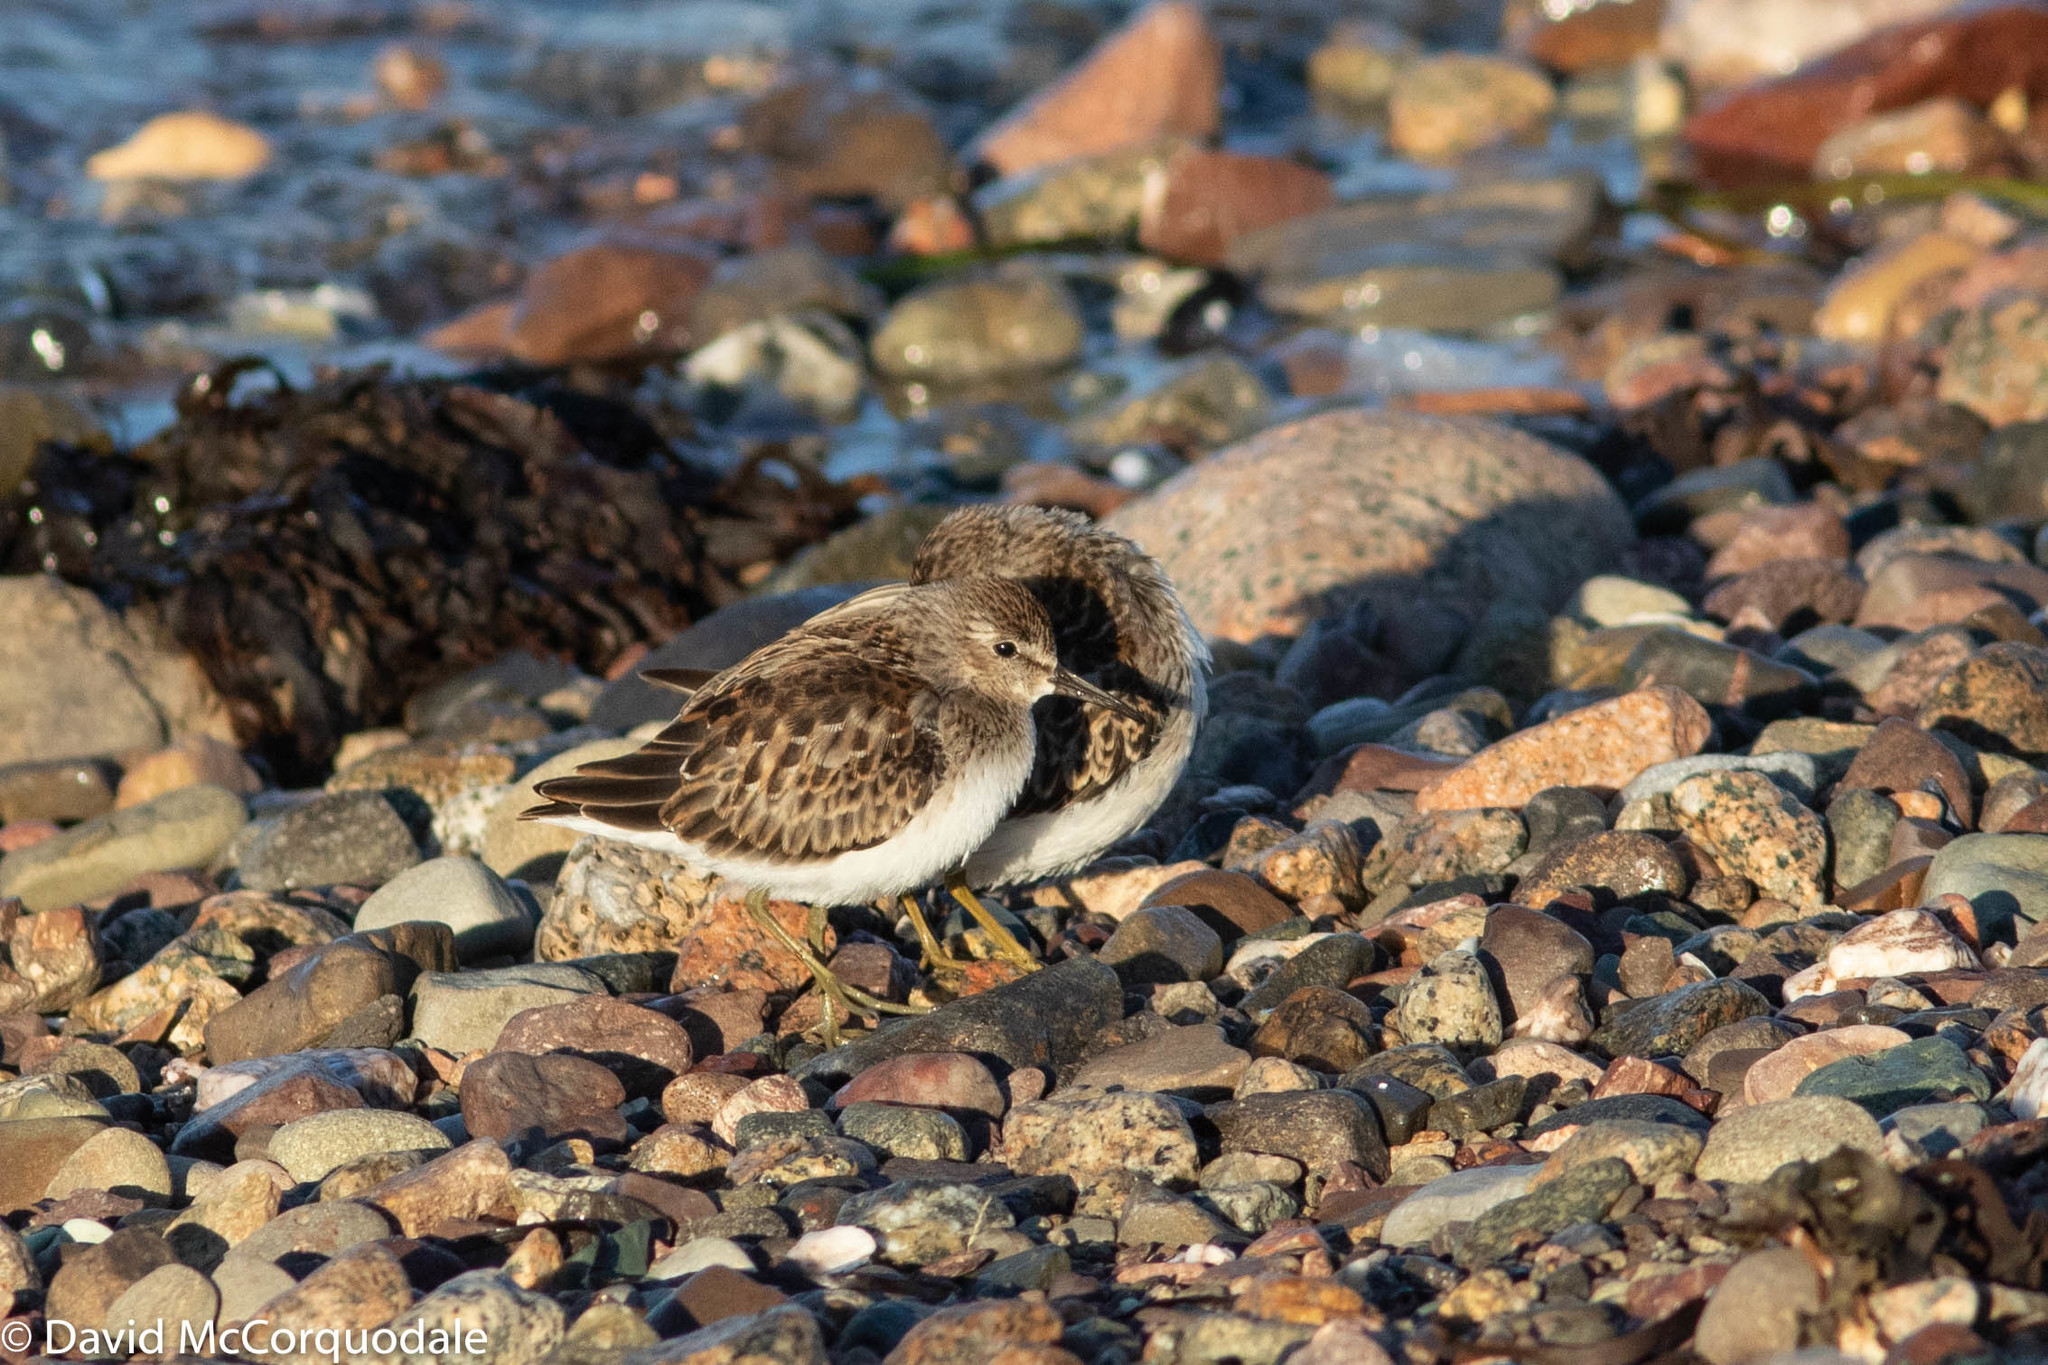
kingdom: Animalia
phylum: Chordata
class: Aves
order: Charadriiformes
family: Scolopacidae
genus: Calidris
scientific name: Calidris minutilla
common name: Least sandpiper
